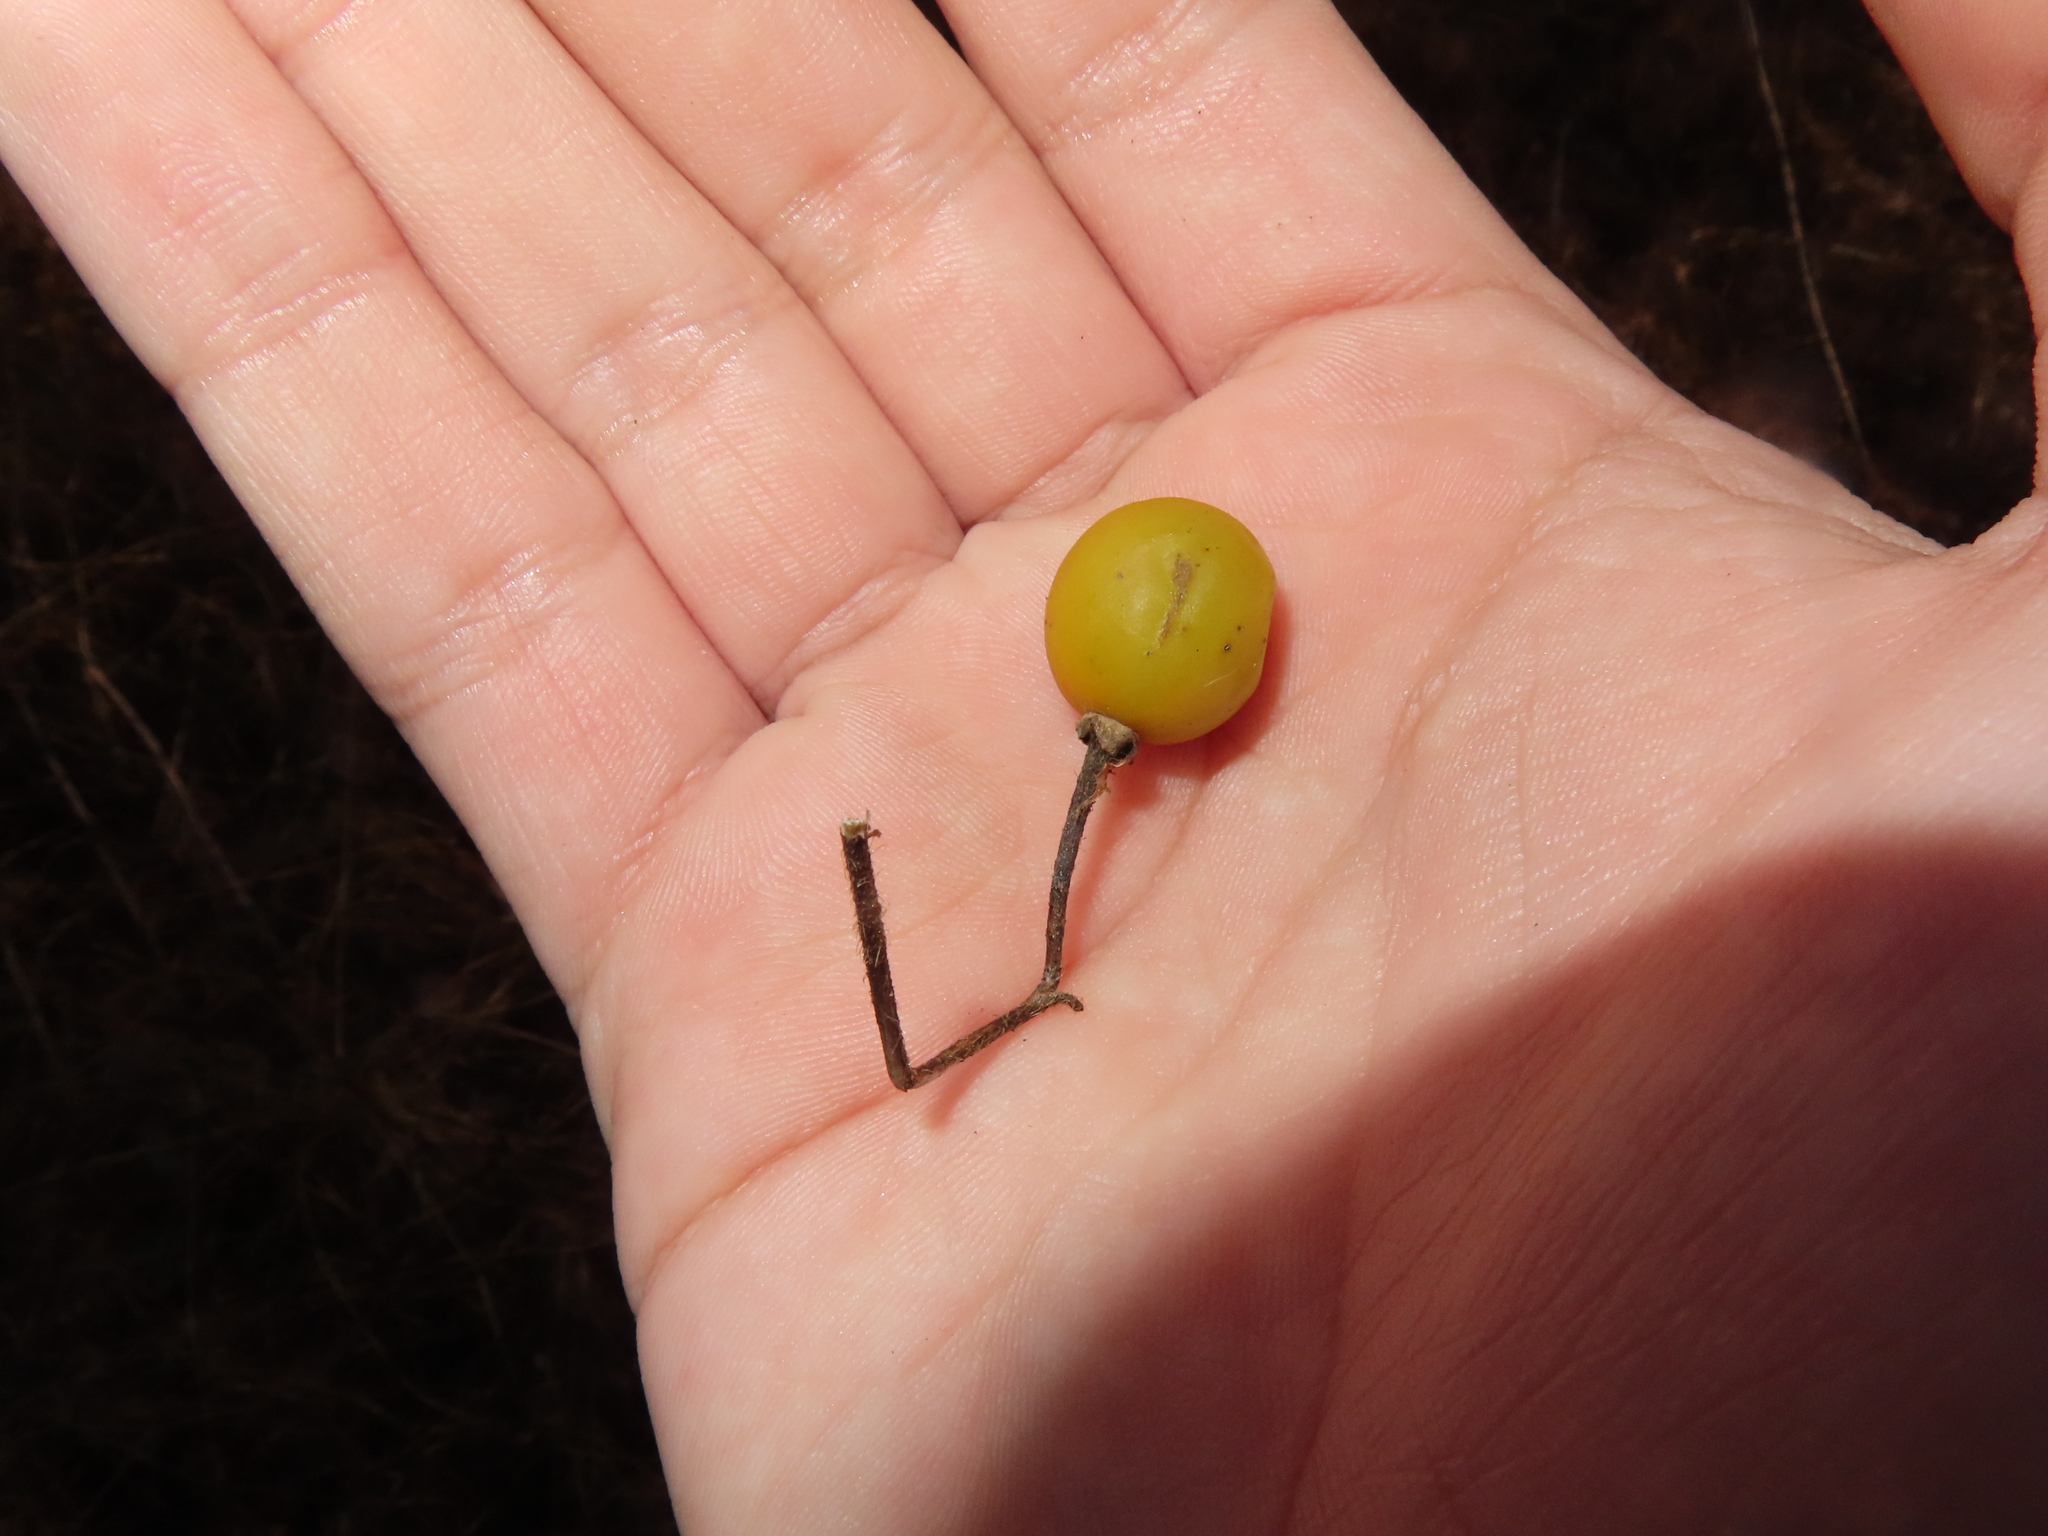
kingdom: Plantae
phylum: Tracheophyta
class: Magnoliopsida
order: Solanales
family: Solanaceae
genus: Solanum
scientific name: Solanum carolinense
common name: Horse-nettle
